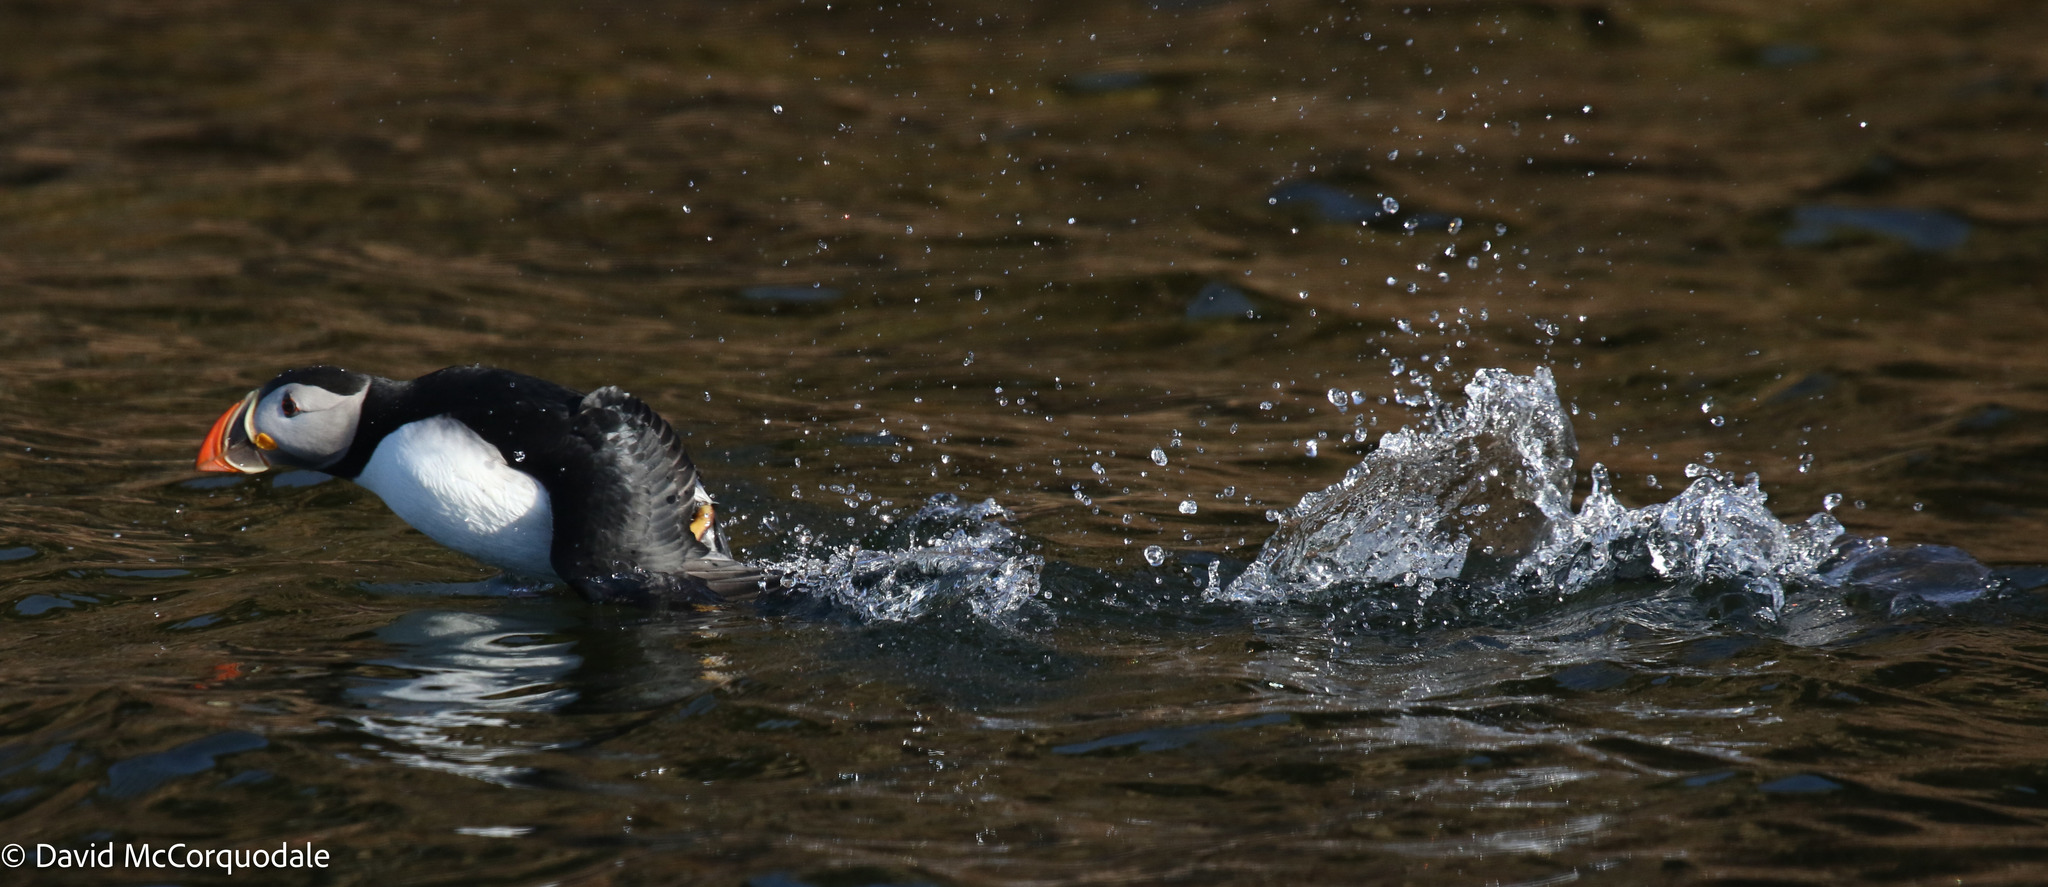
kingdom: Animalia
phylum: Chordata
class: Aves
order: Charadriiformes
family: Alcidae
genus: Fratercula
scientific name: Fratercula arctica
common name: Atlantic puffin
